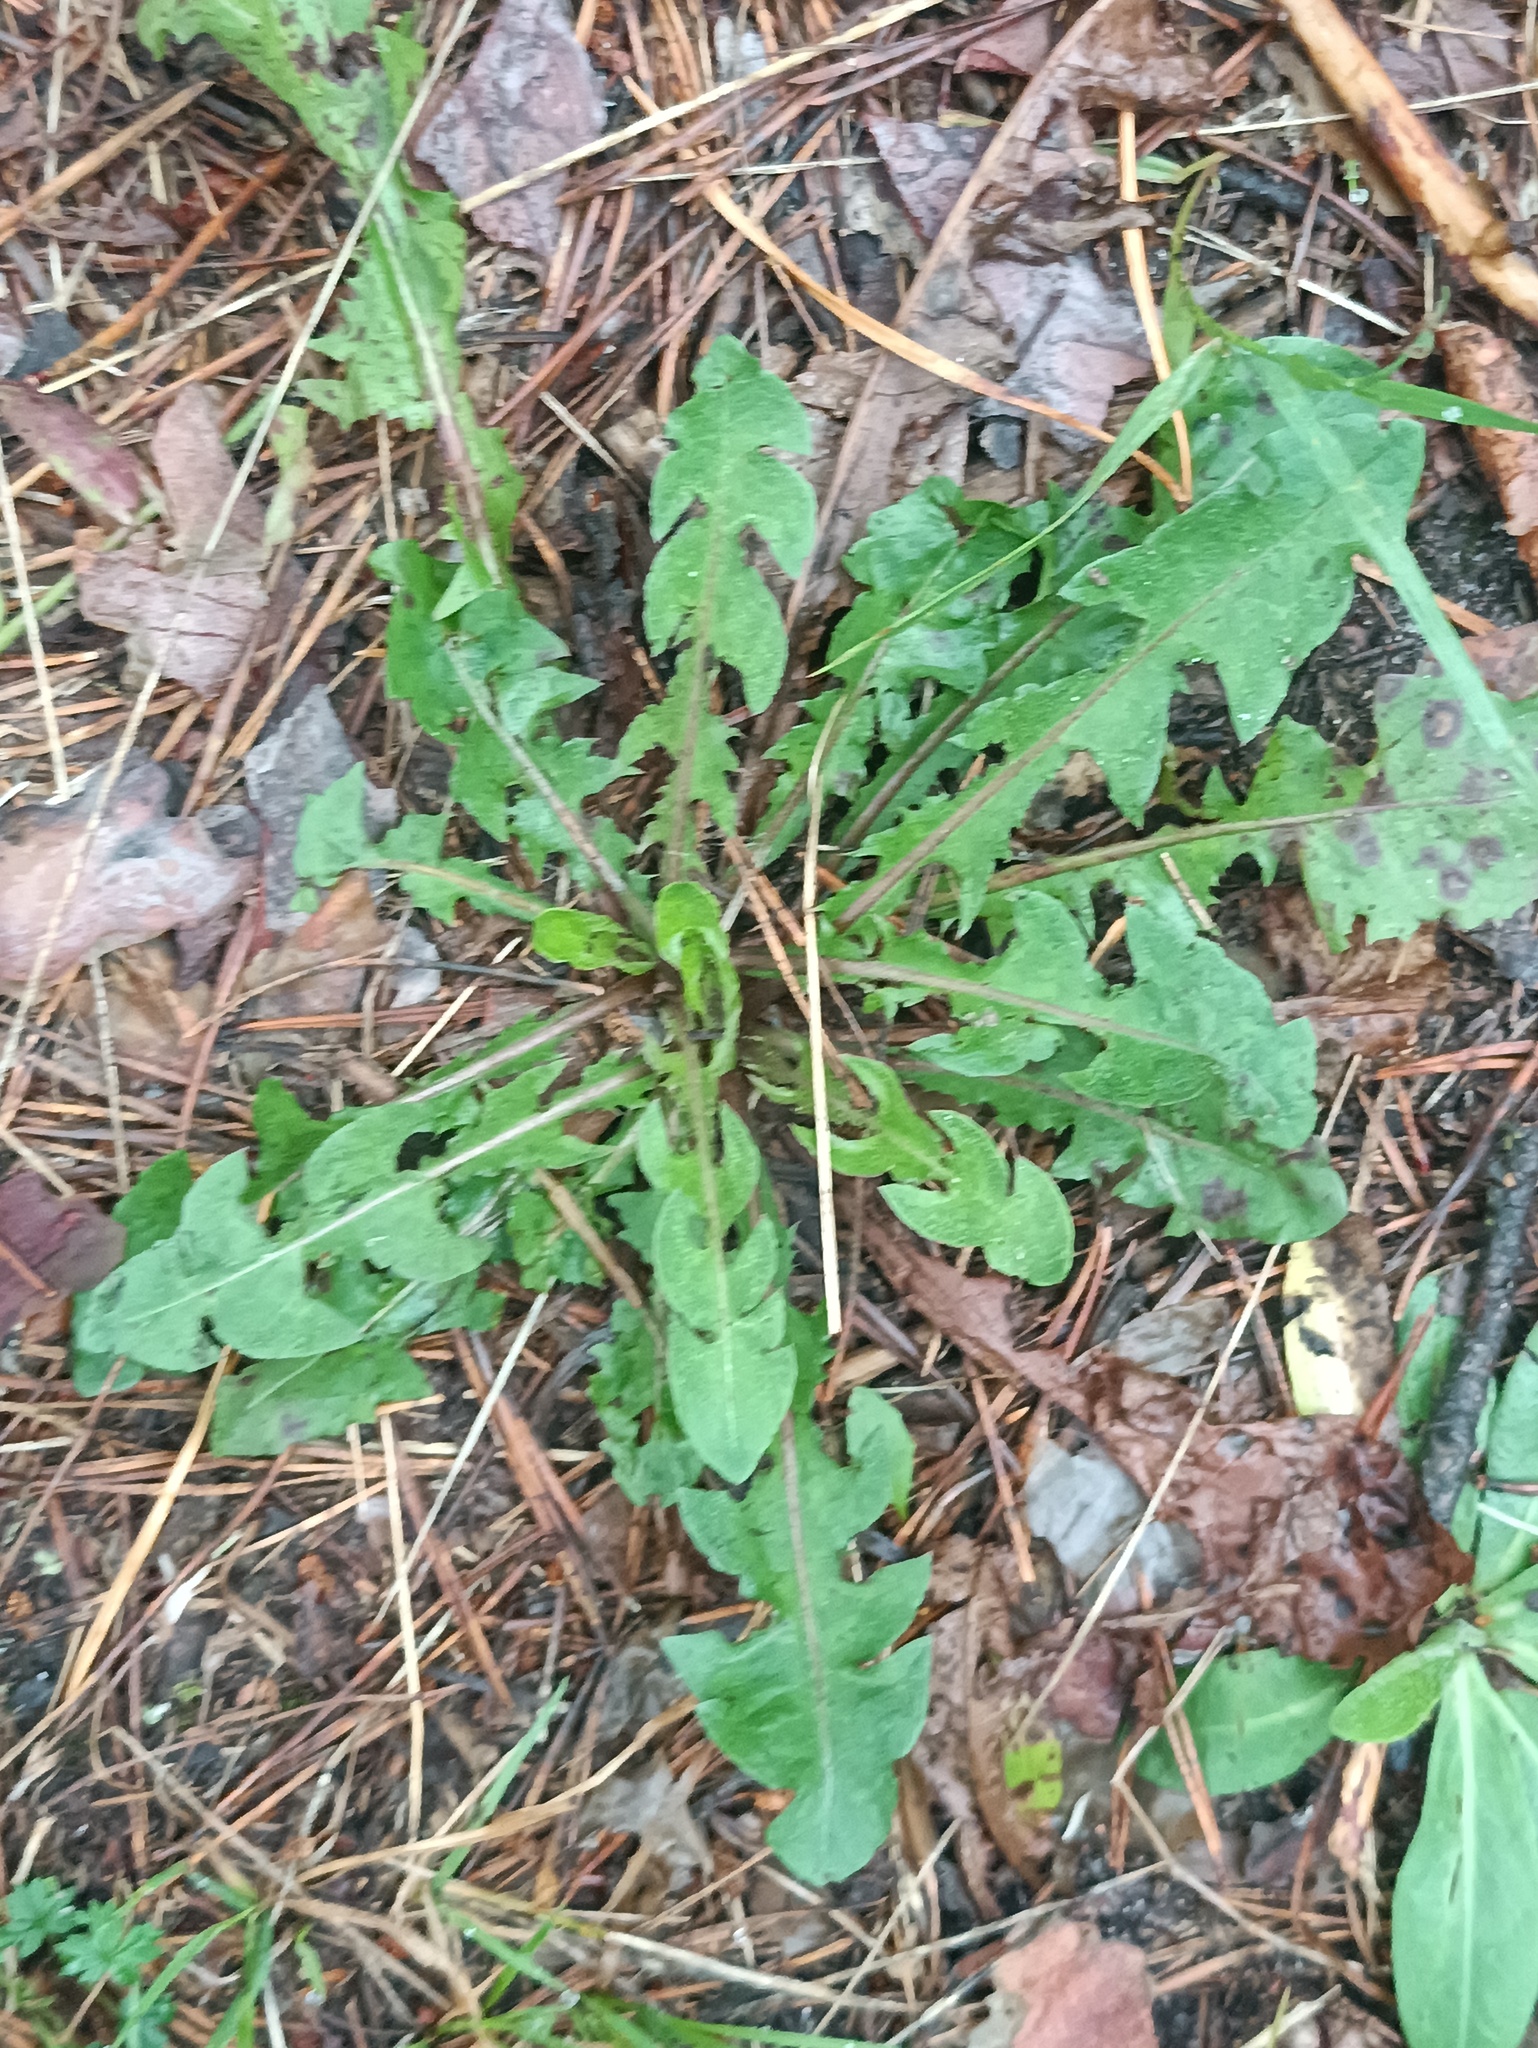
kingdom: Plantae
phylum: Tracheophyta
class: Magnoliopsida
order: Asterales
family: Asteraceae
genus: Taraxacum
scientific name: Taraxacum officinale
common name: Common dandelion
